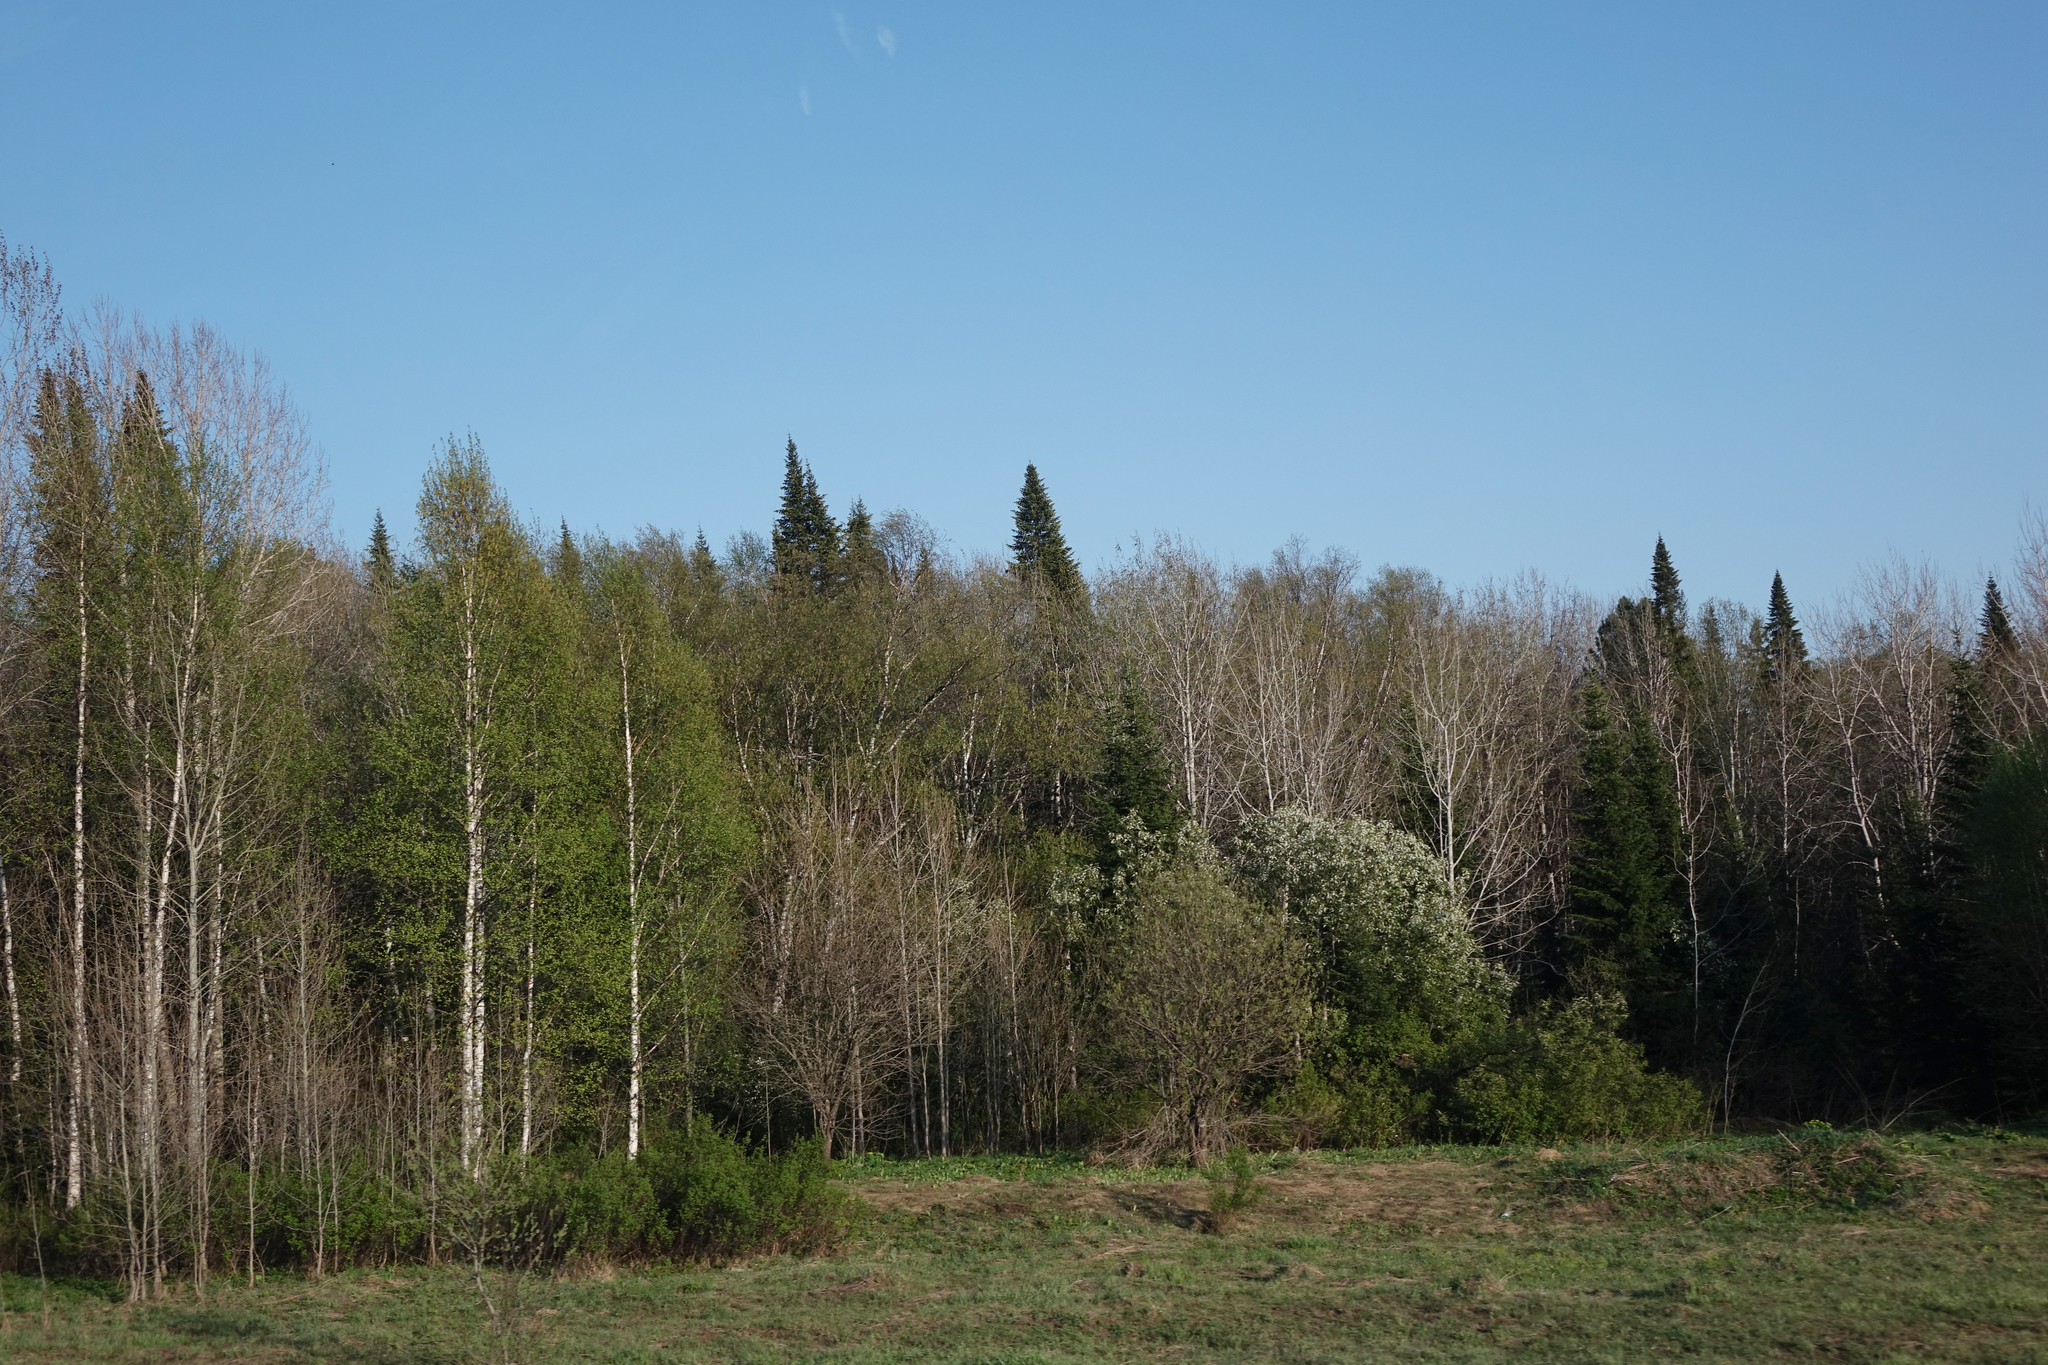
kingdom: Plantae
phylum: Tracheophyta
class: Magnoliopsida
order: Malpighiales
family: Salicaceae
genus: Populus
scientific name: Populus tremula
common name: European aspen
